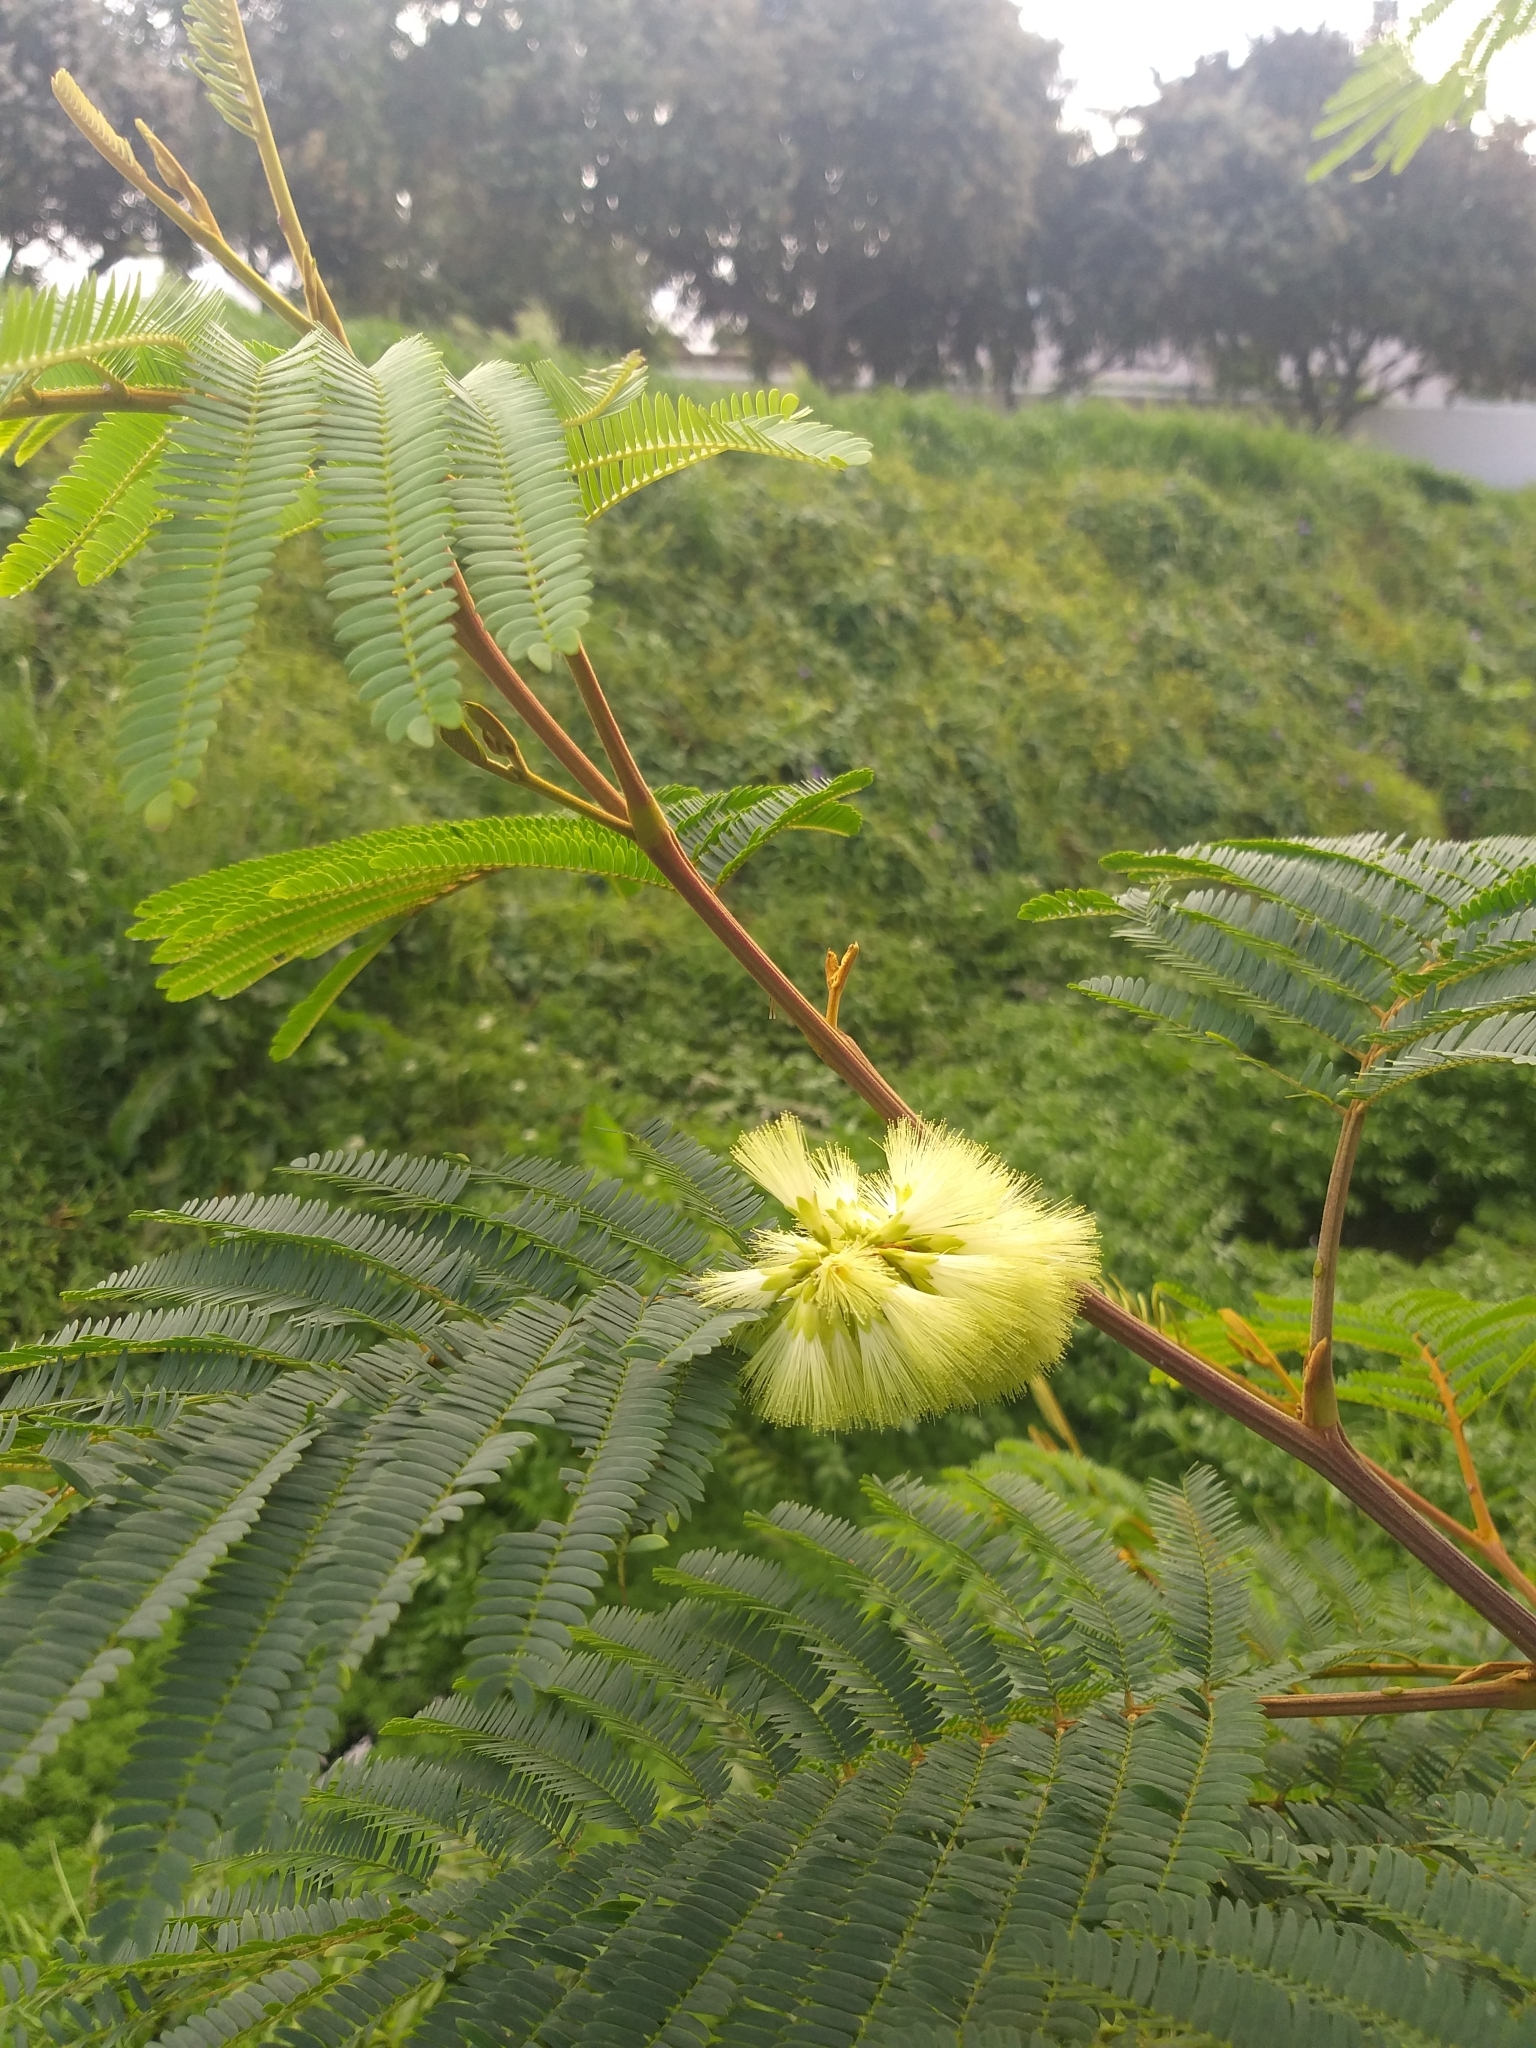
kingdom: Plantae
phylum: Tracheophyta
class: Magnoliopsida
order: Fabales
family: Fabaceae
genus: Paraserianthes
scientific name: Paraserianthes lophantha
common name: Plume albizia
